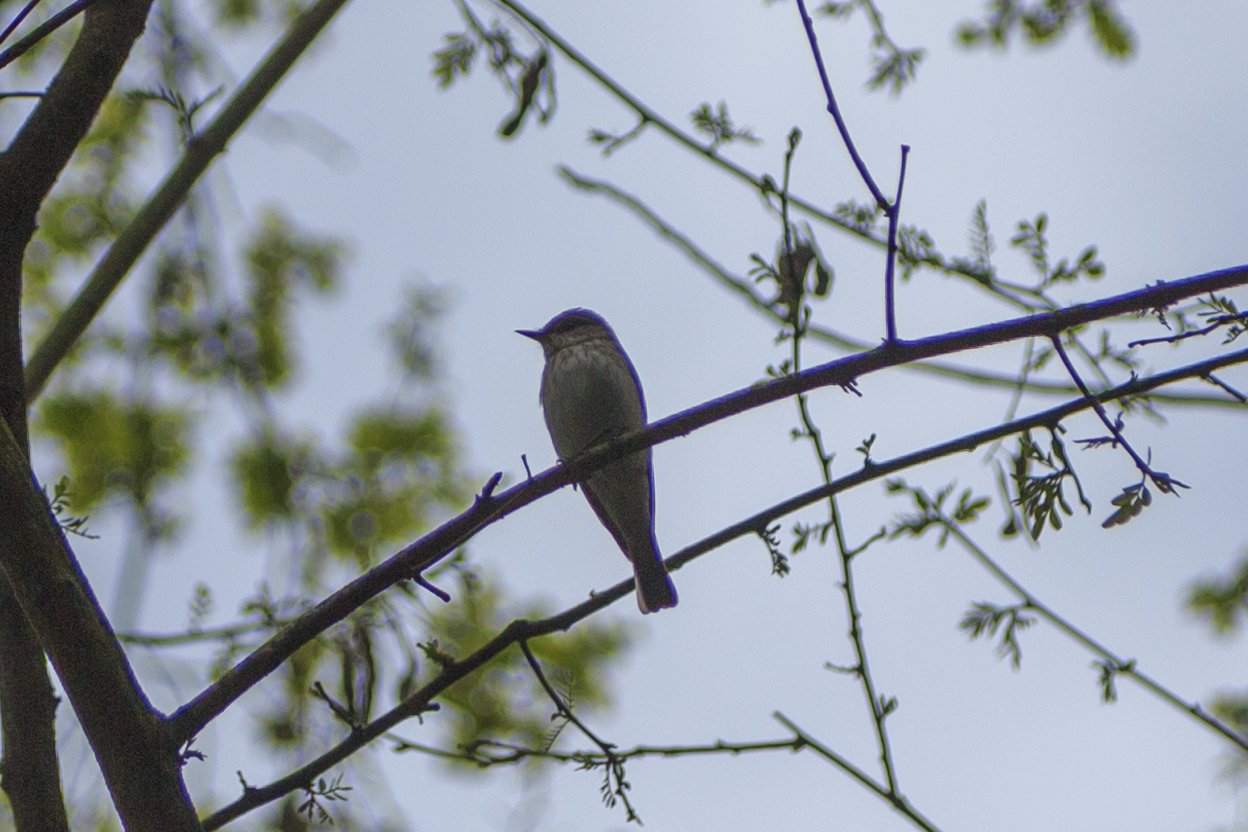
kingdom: Animalia
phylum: Chordata
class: Aves
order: Passeriformes
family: Muscicapidae
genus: Muscicapa
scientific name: Muscicapa striata
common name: Spotted flycatcher
